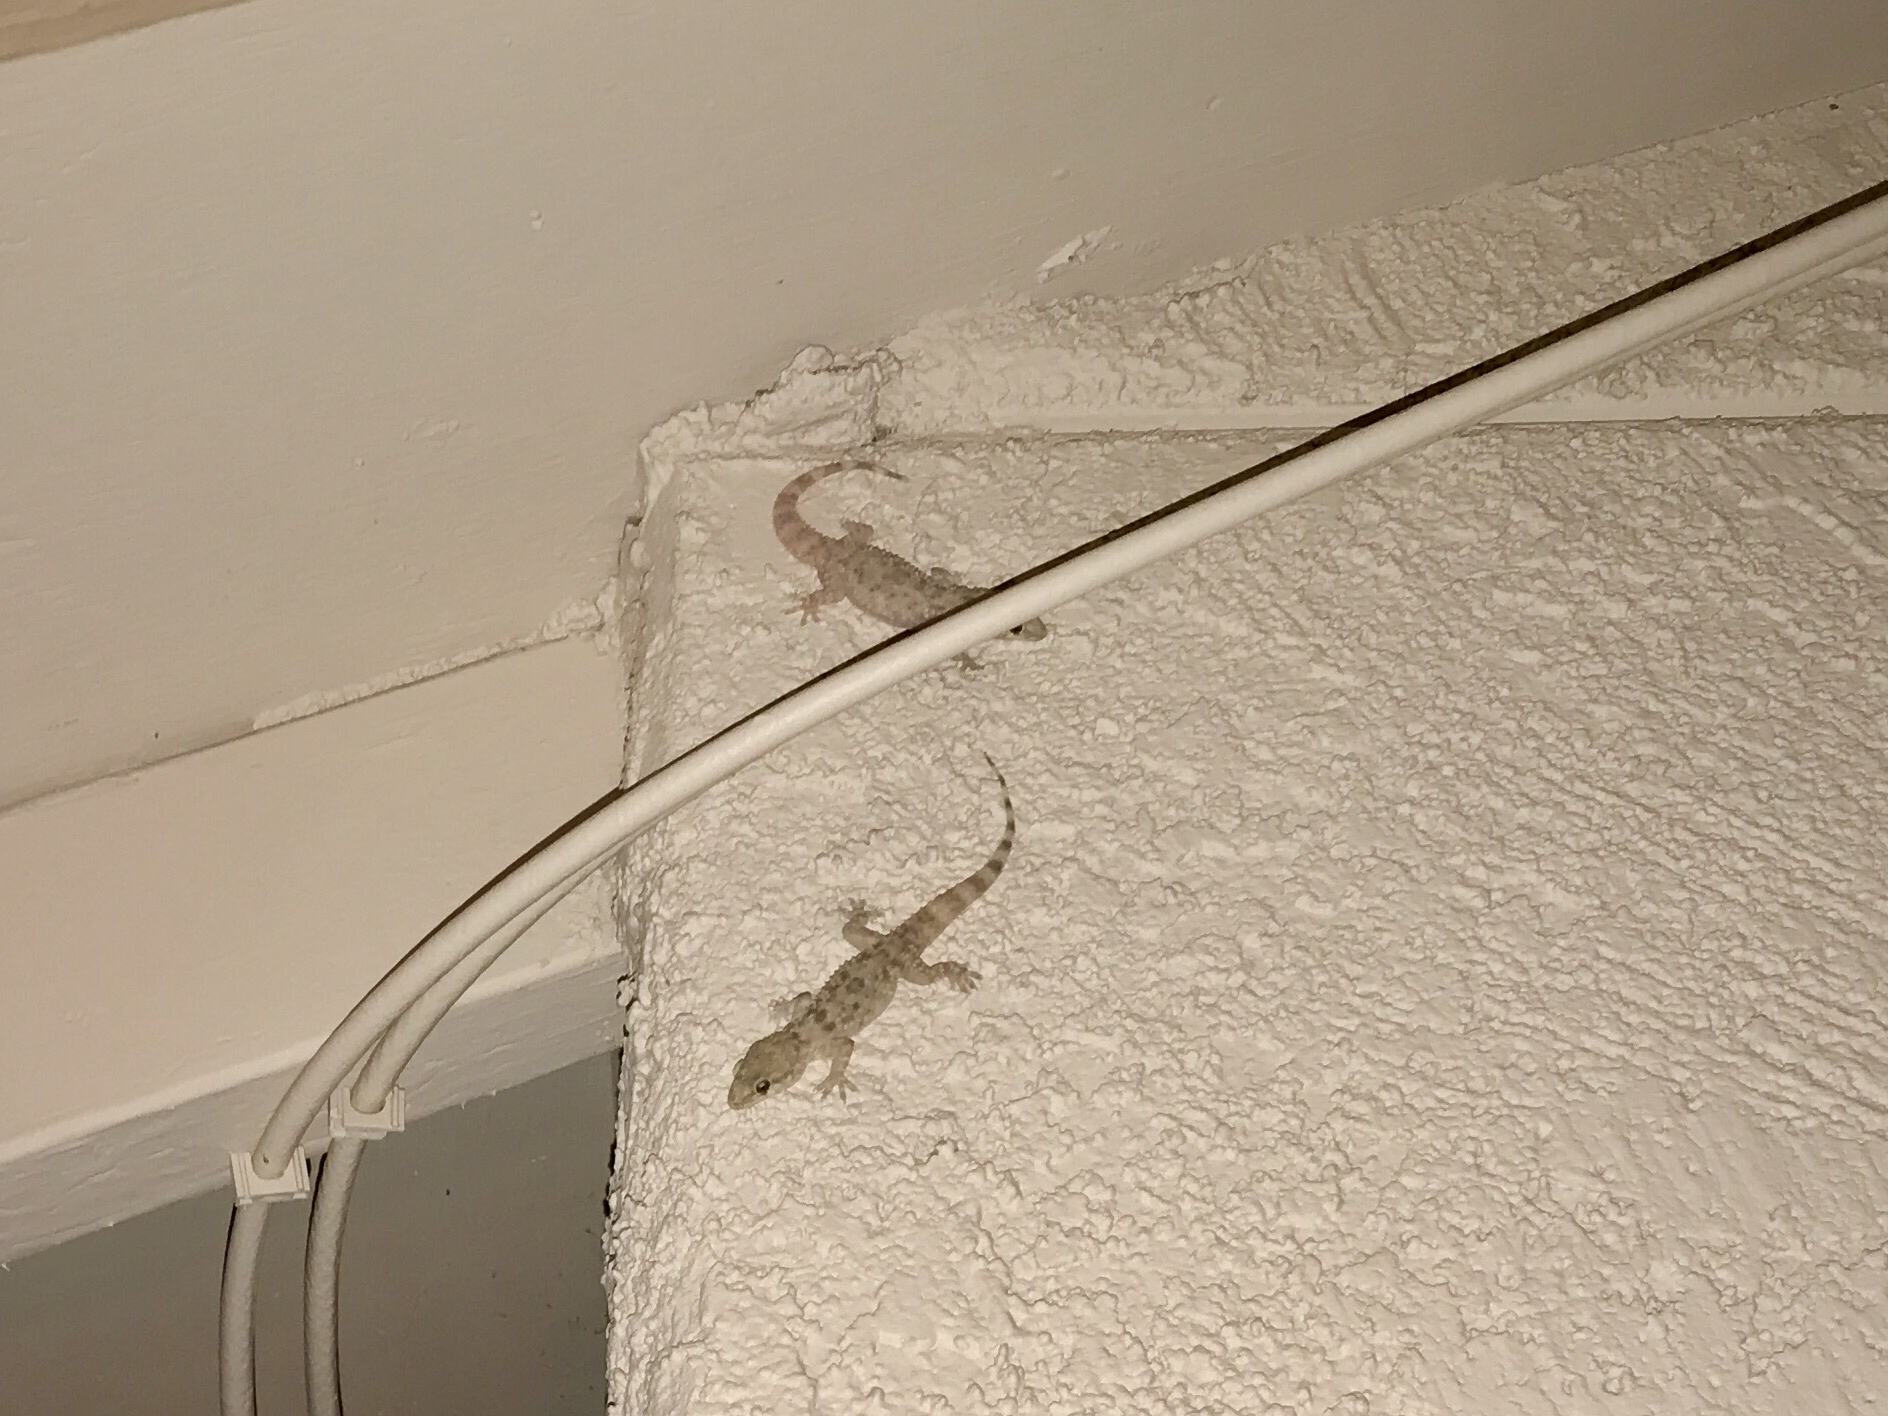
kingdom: Animalia
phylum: Chordata
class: Squamata
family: Gekkonidae
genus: Hemidactylus
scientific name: Hemidactylus turcicus
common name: Turkish gecko
